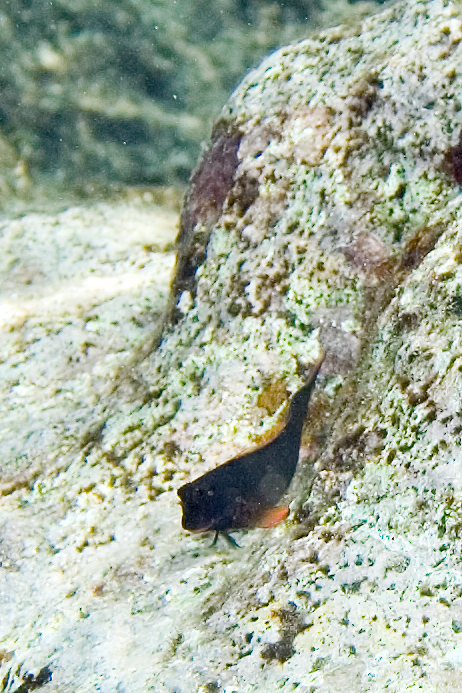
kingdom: Animalia
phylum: Chordata
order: Perciformes
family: Blenniidae
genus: Ophioblennius
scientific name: Ophioblennius macclurei
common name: Redlip blenny
